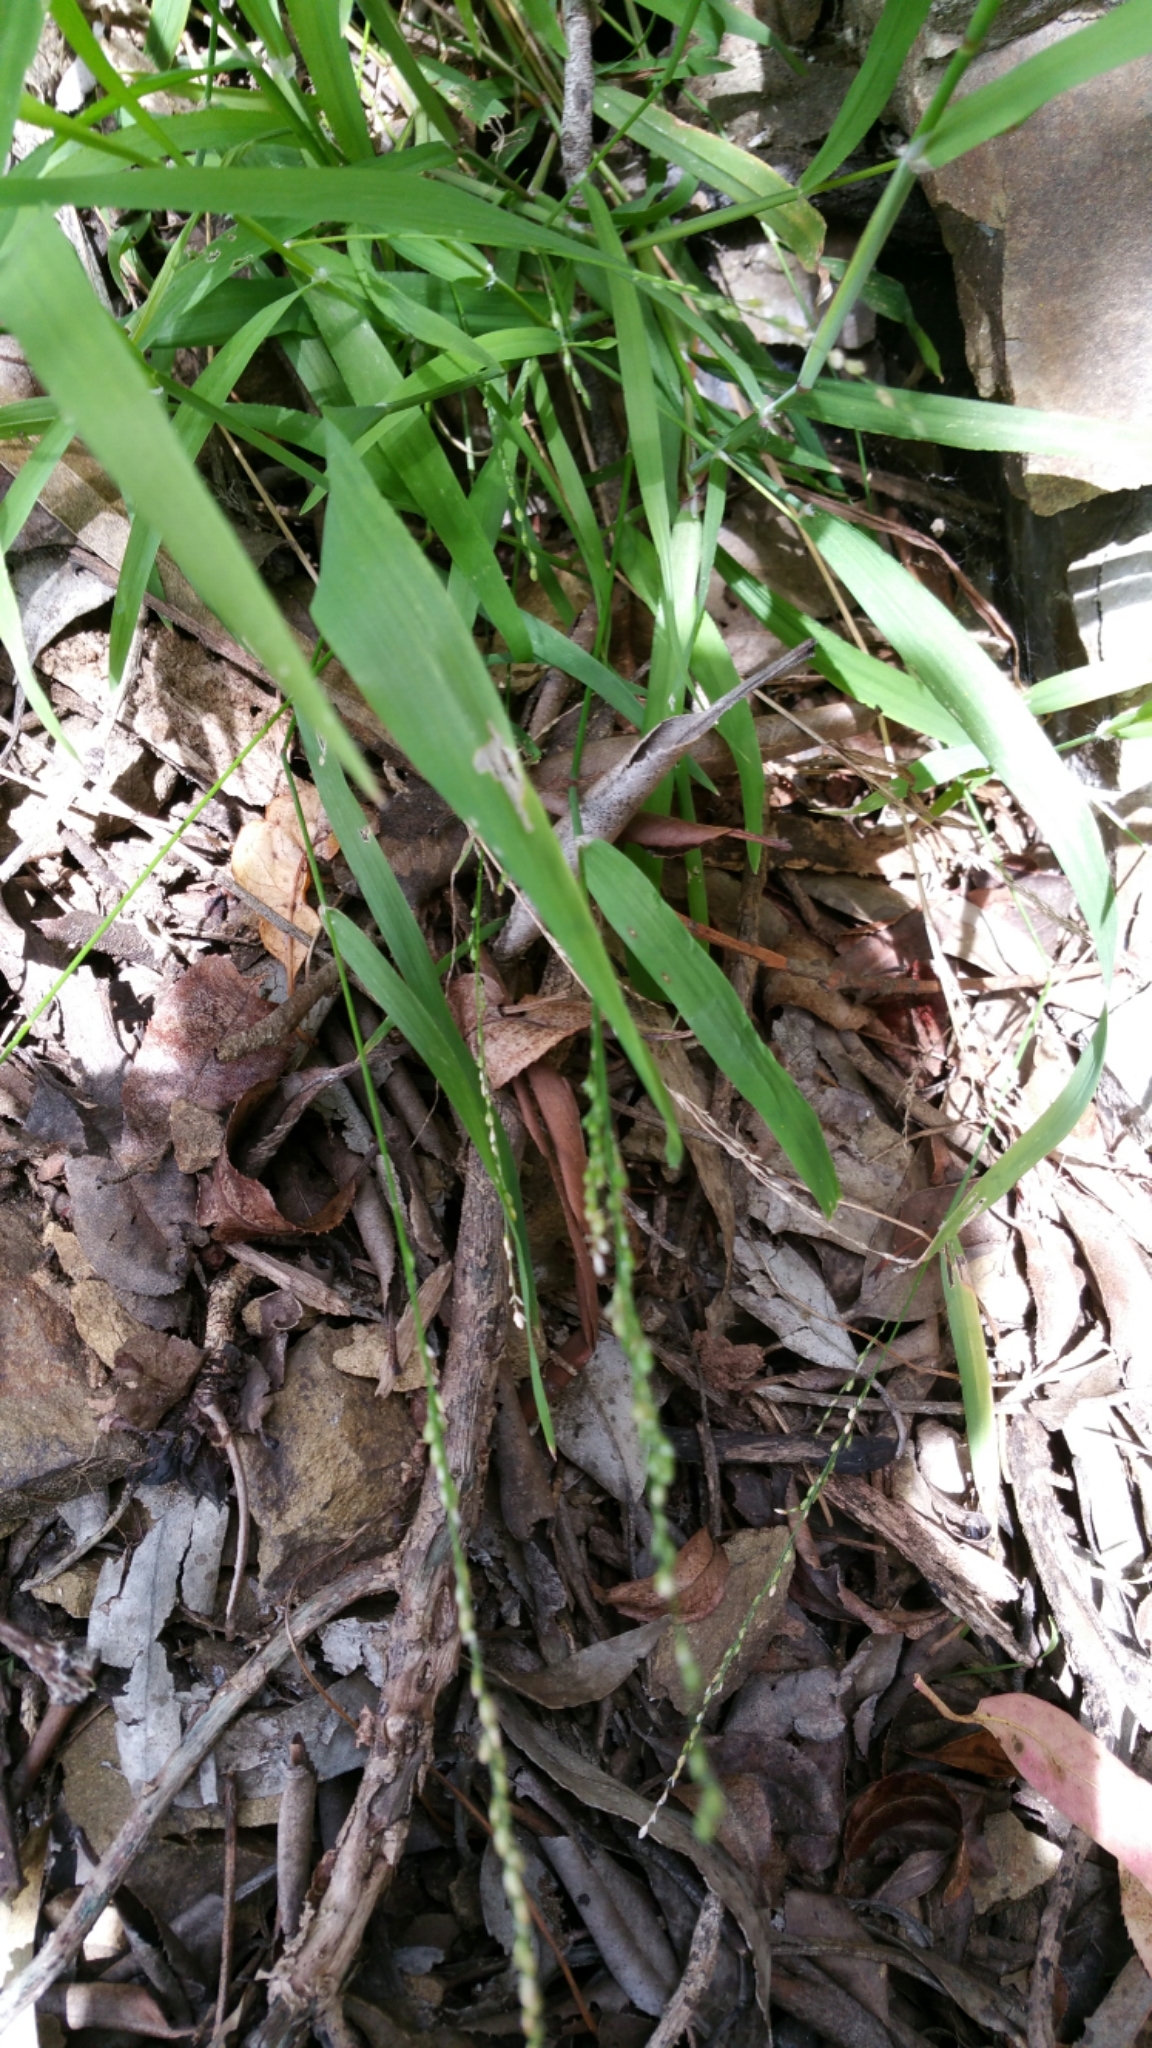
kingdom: Plantae
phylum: Tracheophyta
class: Liliopsida
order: Poales
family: Poaceae
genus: Ehrharta
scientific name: Ehrharta erecta
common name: Panic veldtgrass
